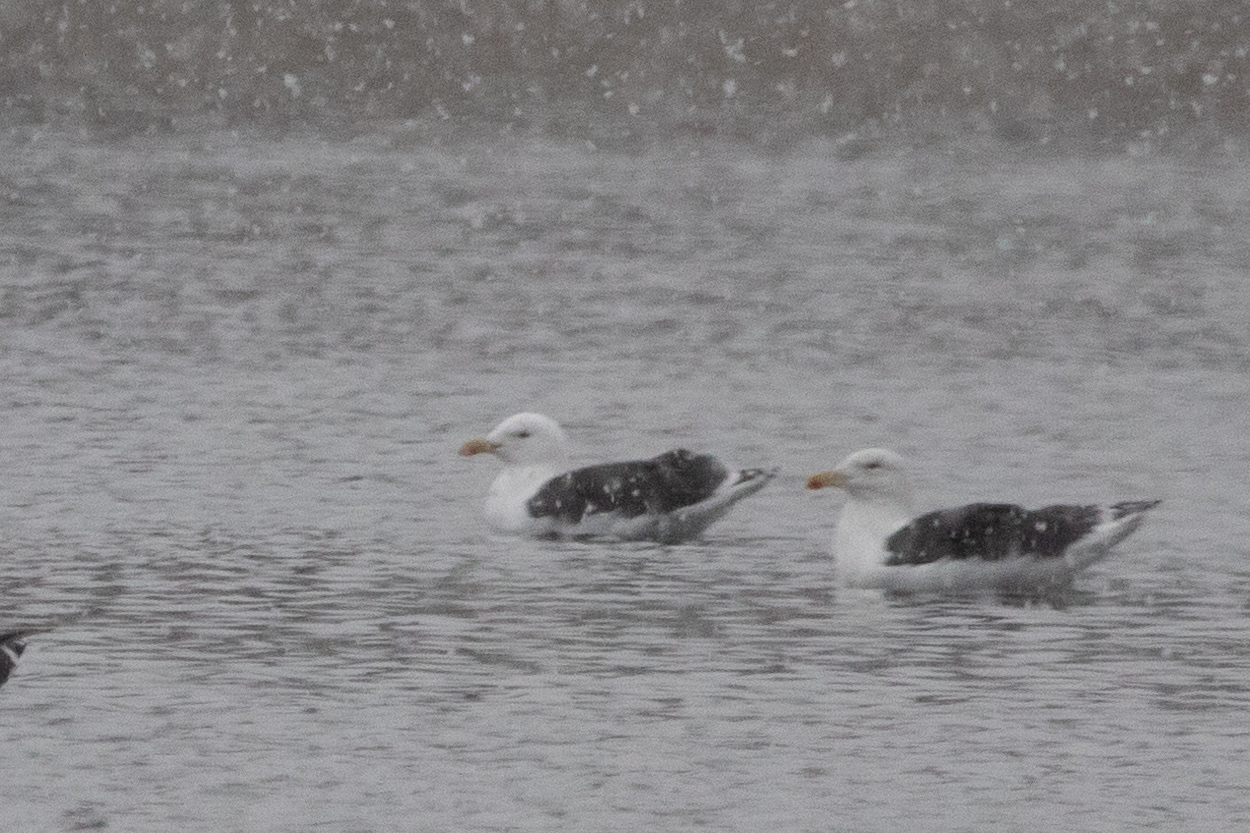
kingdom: Animalia
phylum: Chordata
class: Aves
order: Charadriiformes
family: Laridae
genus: Larus
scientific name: Larus marinus
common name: Great black-backed gull
